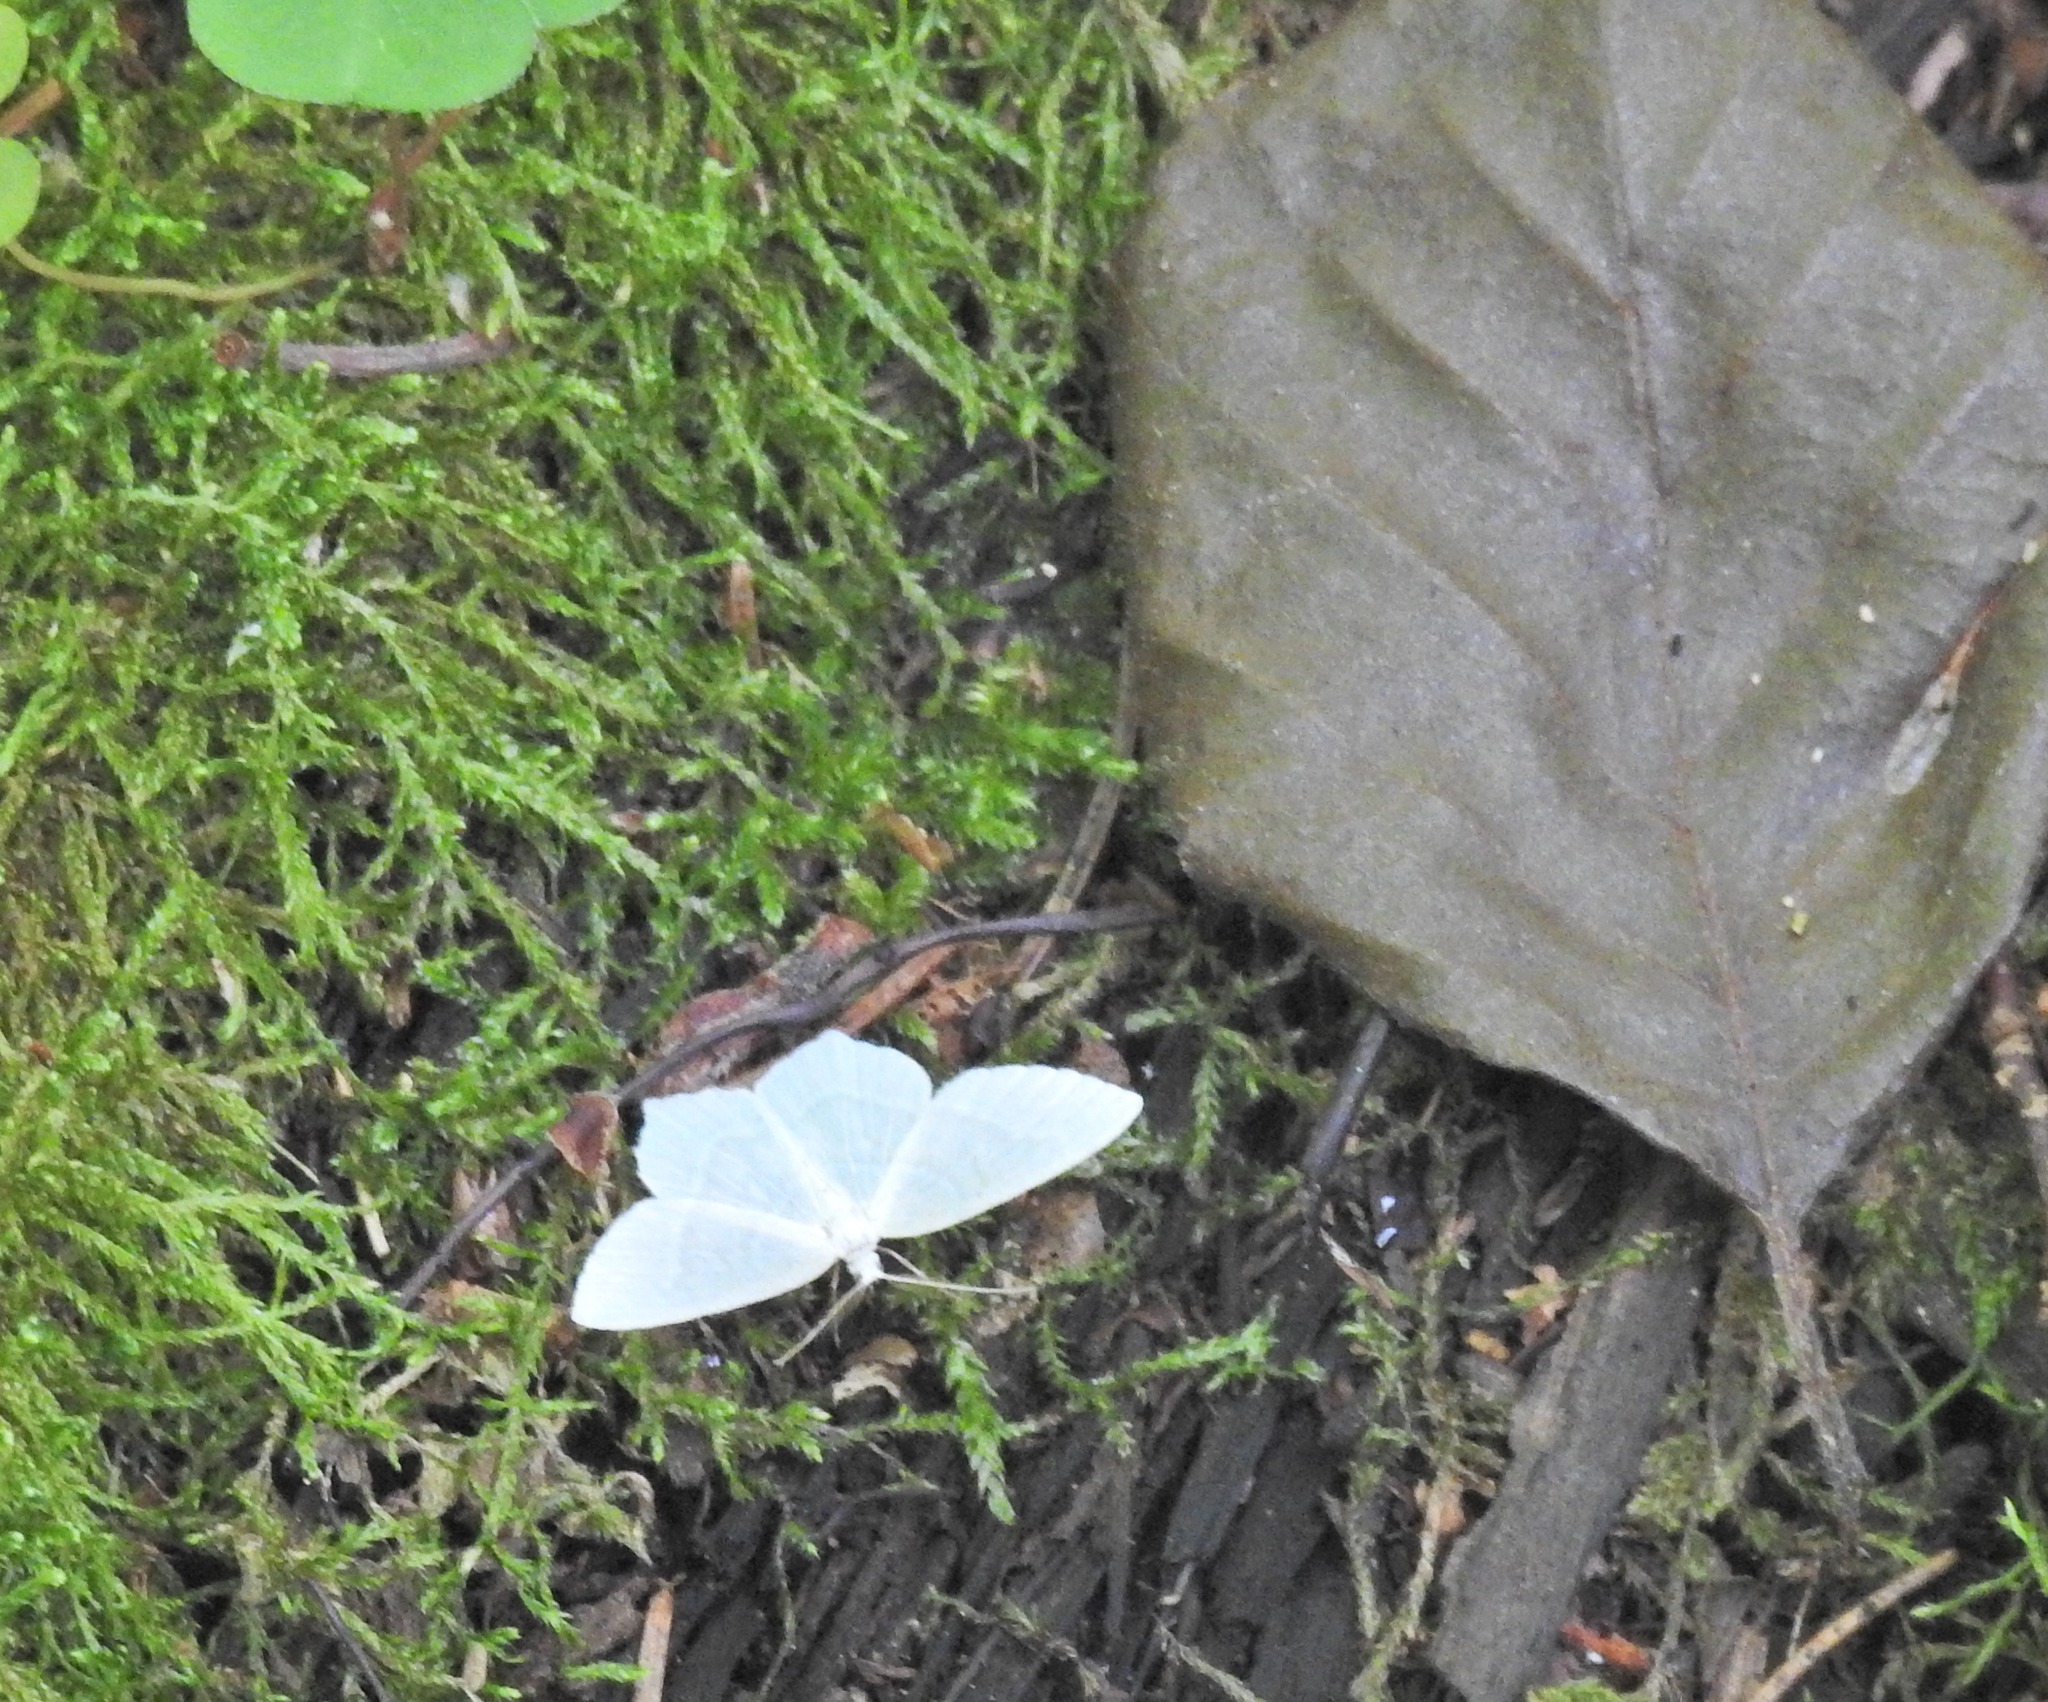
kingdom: Animalia
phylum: Arthropoda
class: Insecta
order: Lepidoptera
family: Geometridae
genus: Jodis
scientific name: Jodis putata
